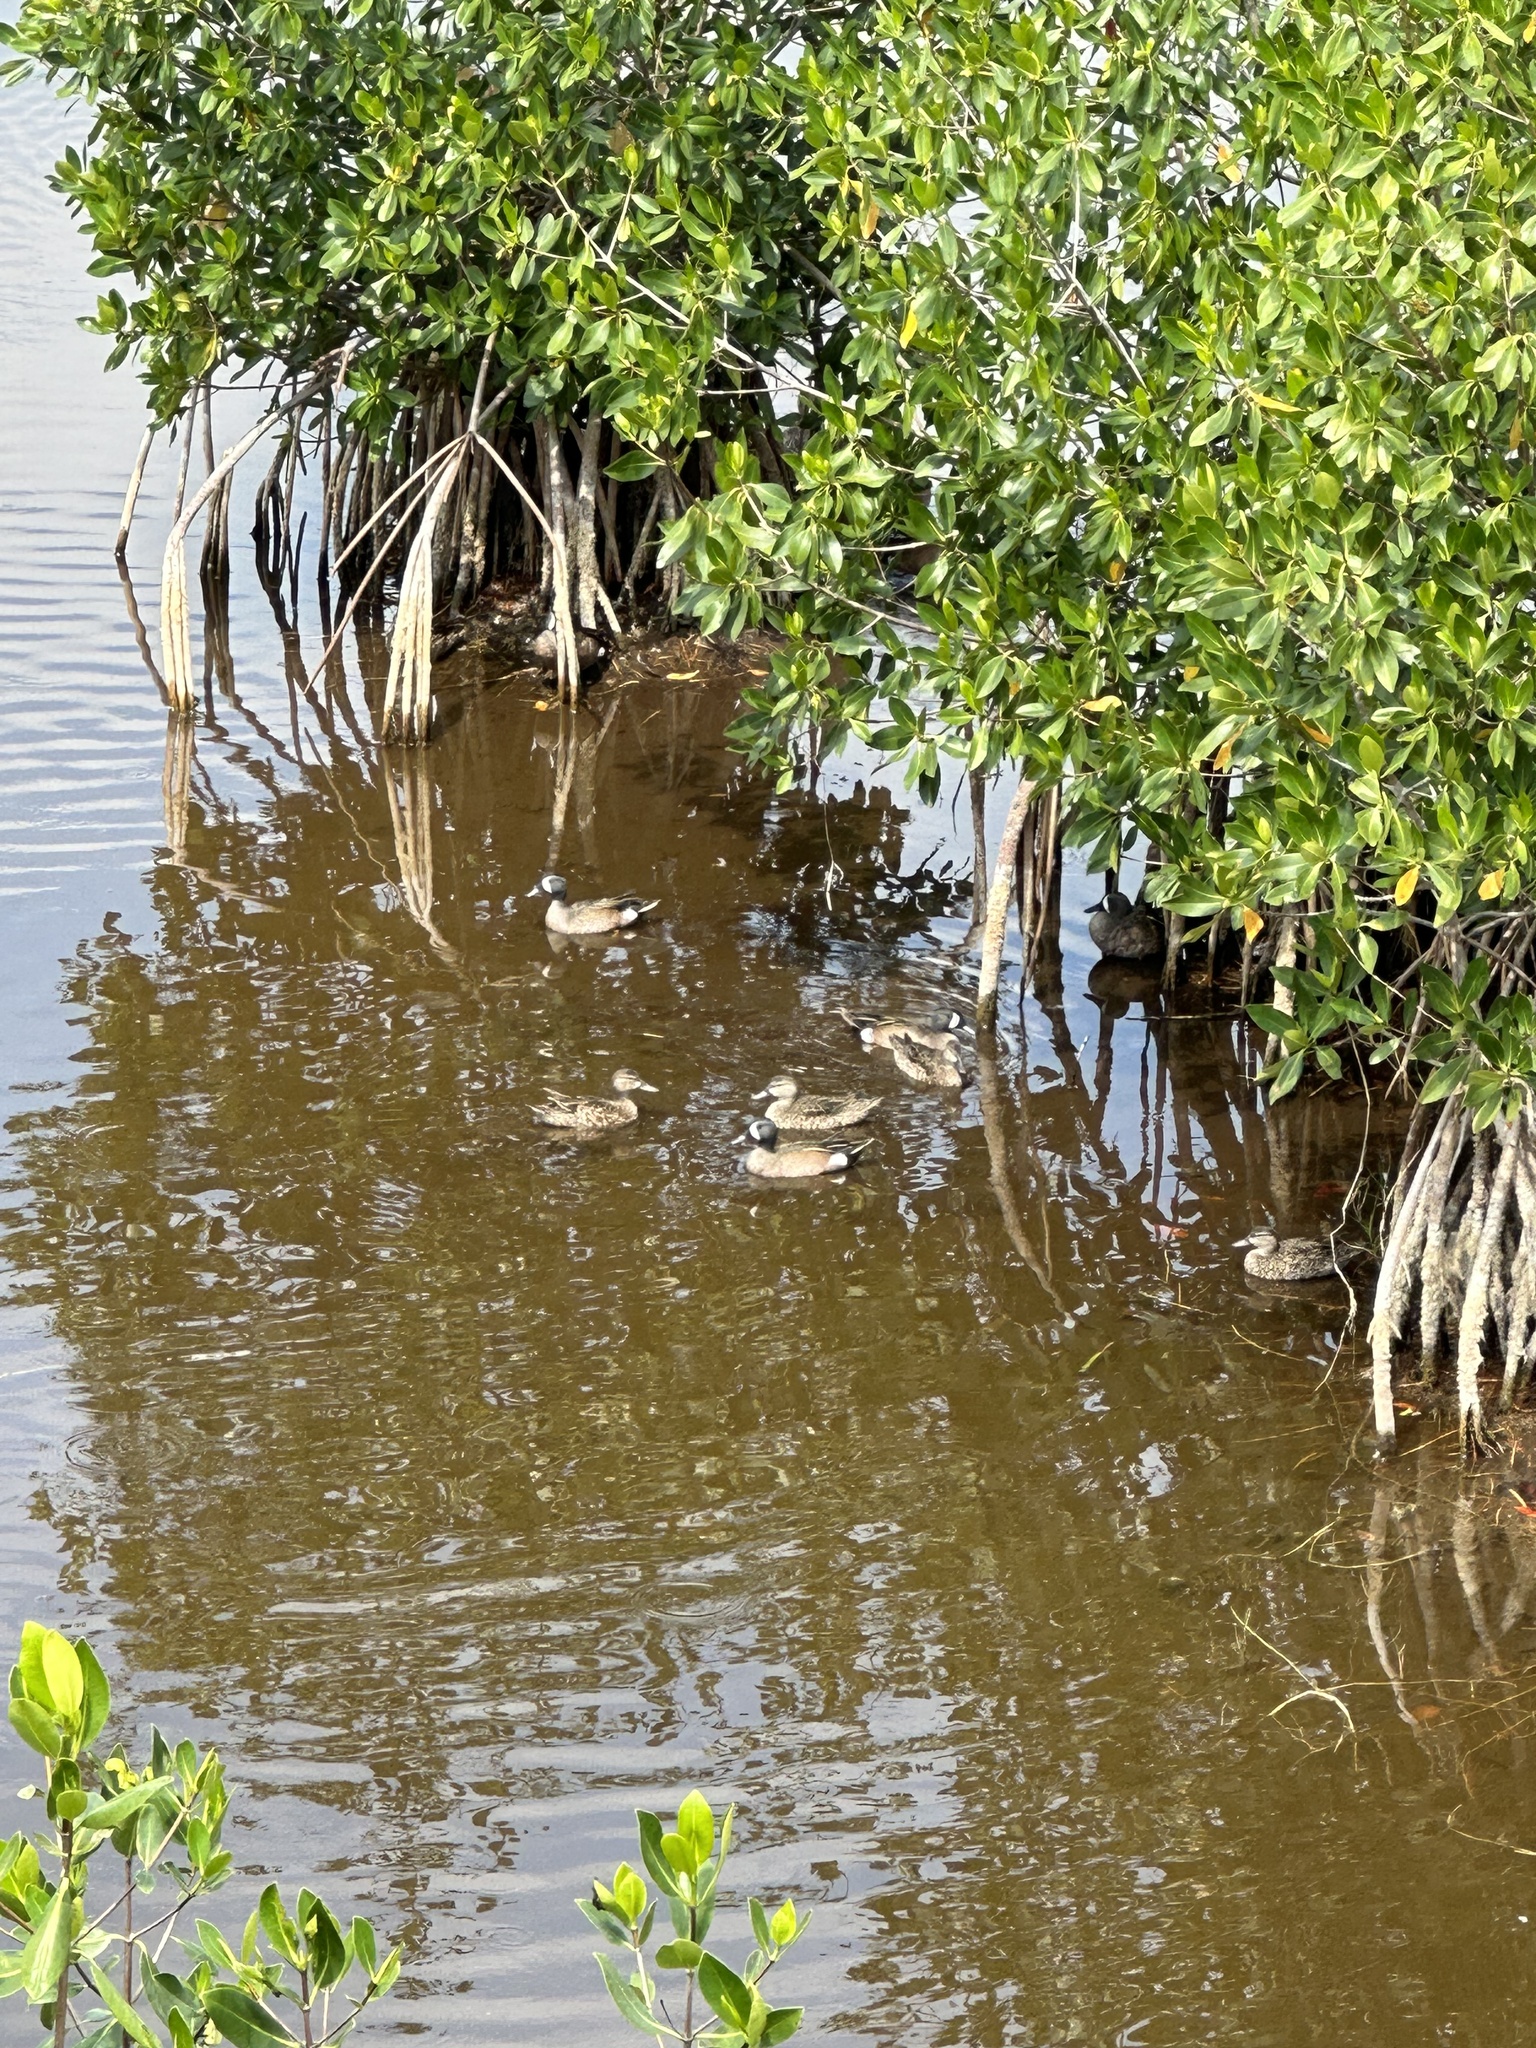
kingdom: Animalia
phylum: Chordata
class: Aves
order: Anseriformes
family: Anatidae
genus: Spatula
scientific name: Spatula discors
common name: Blue-winged teal
